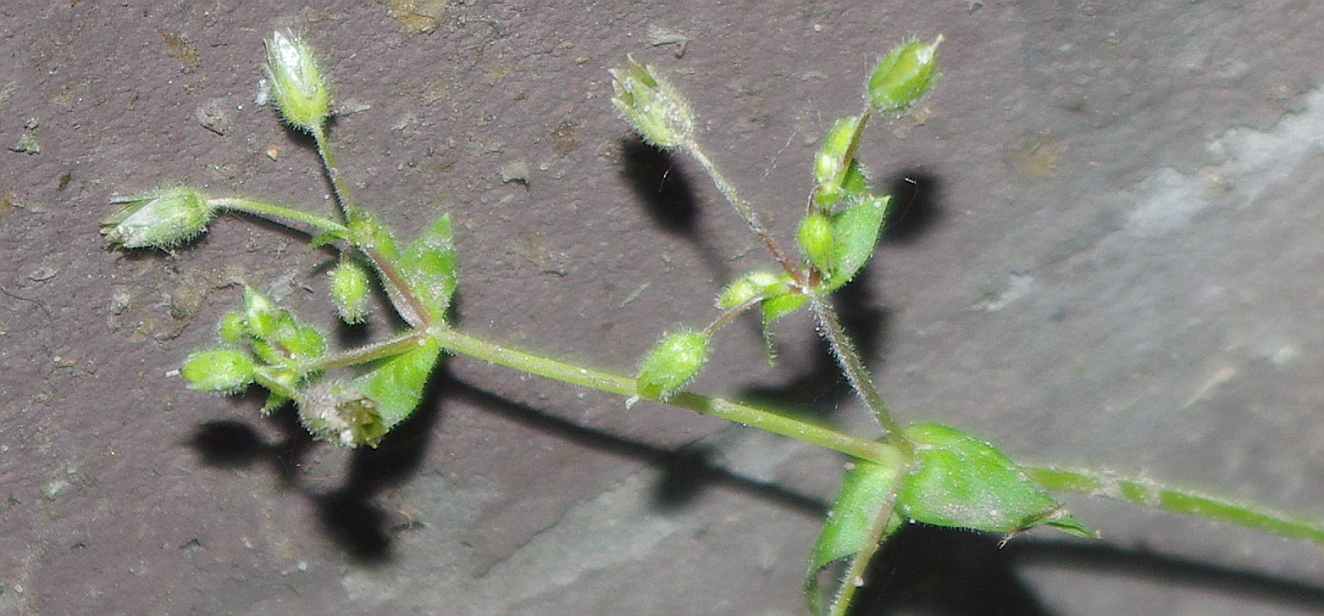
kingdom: Plantae
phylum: Tracheophyta
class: Magnoliopsida
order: Caryophyllales
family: Caryophyllaceae
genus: Stellaria
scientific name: Stellaria media
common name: Common chickweed
